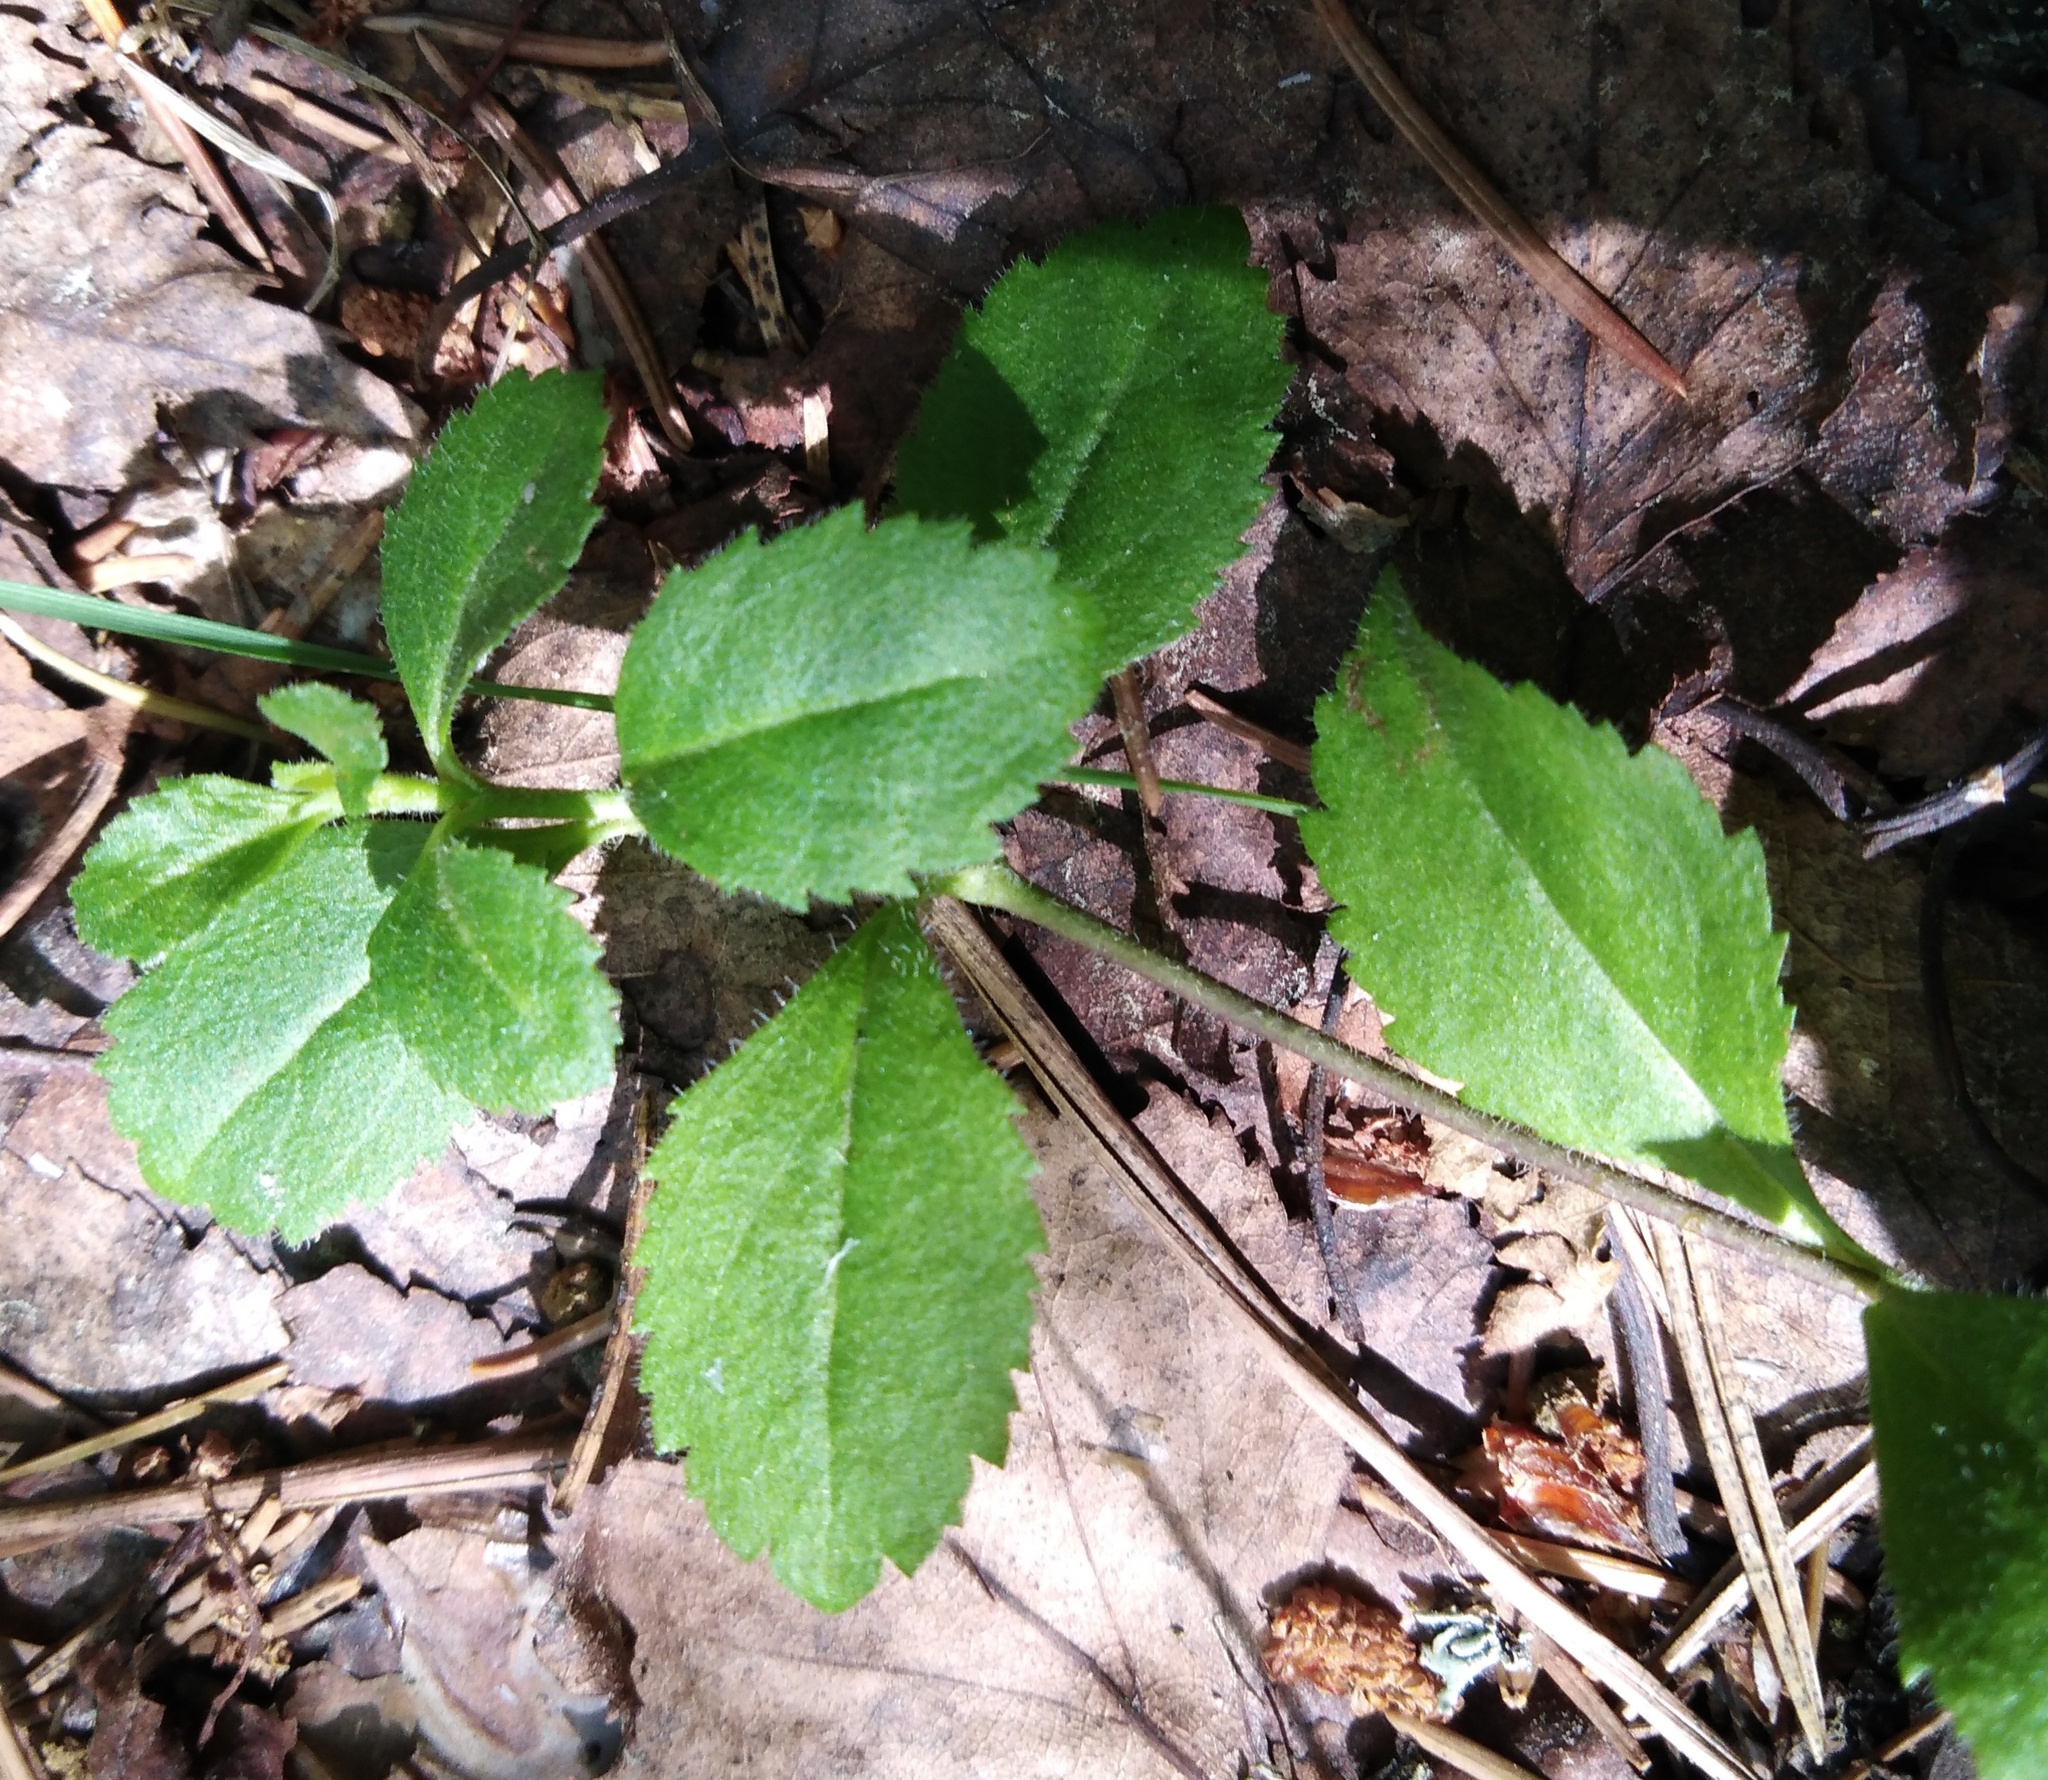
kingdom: Plantae
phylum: Tracheophyta
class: Magnoliopsida
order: Lamiales
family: Plantaginaceae
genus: Veronica
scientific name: Veronica officinalis
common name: Common speedwell
